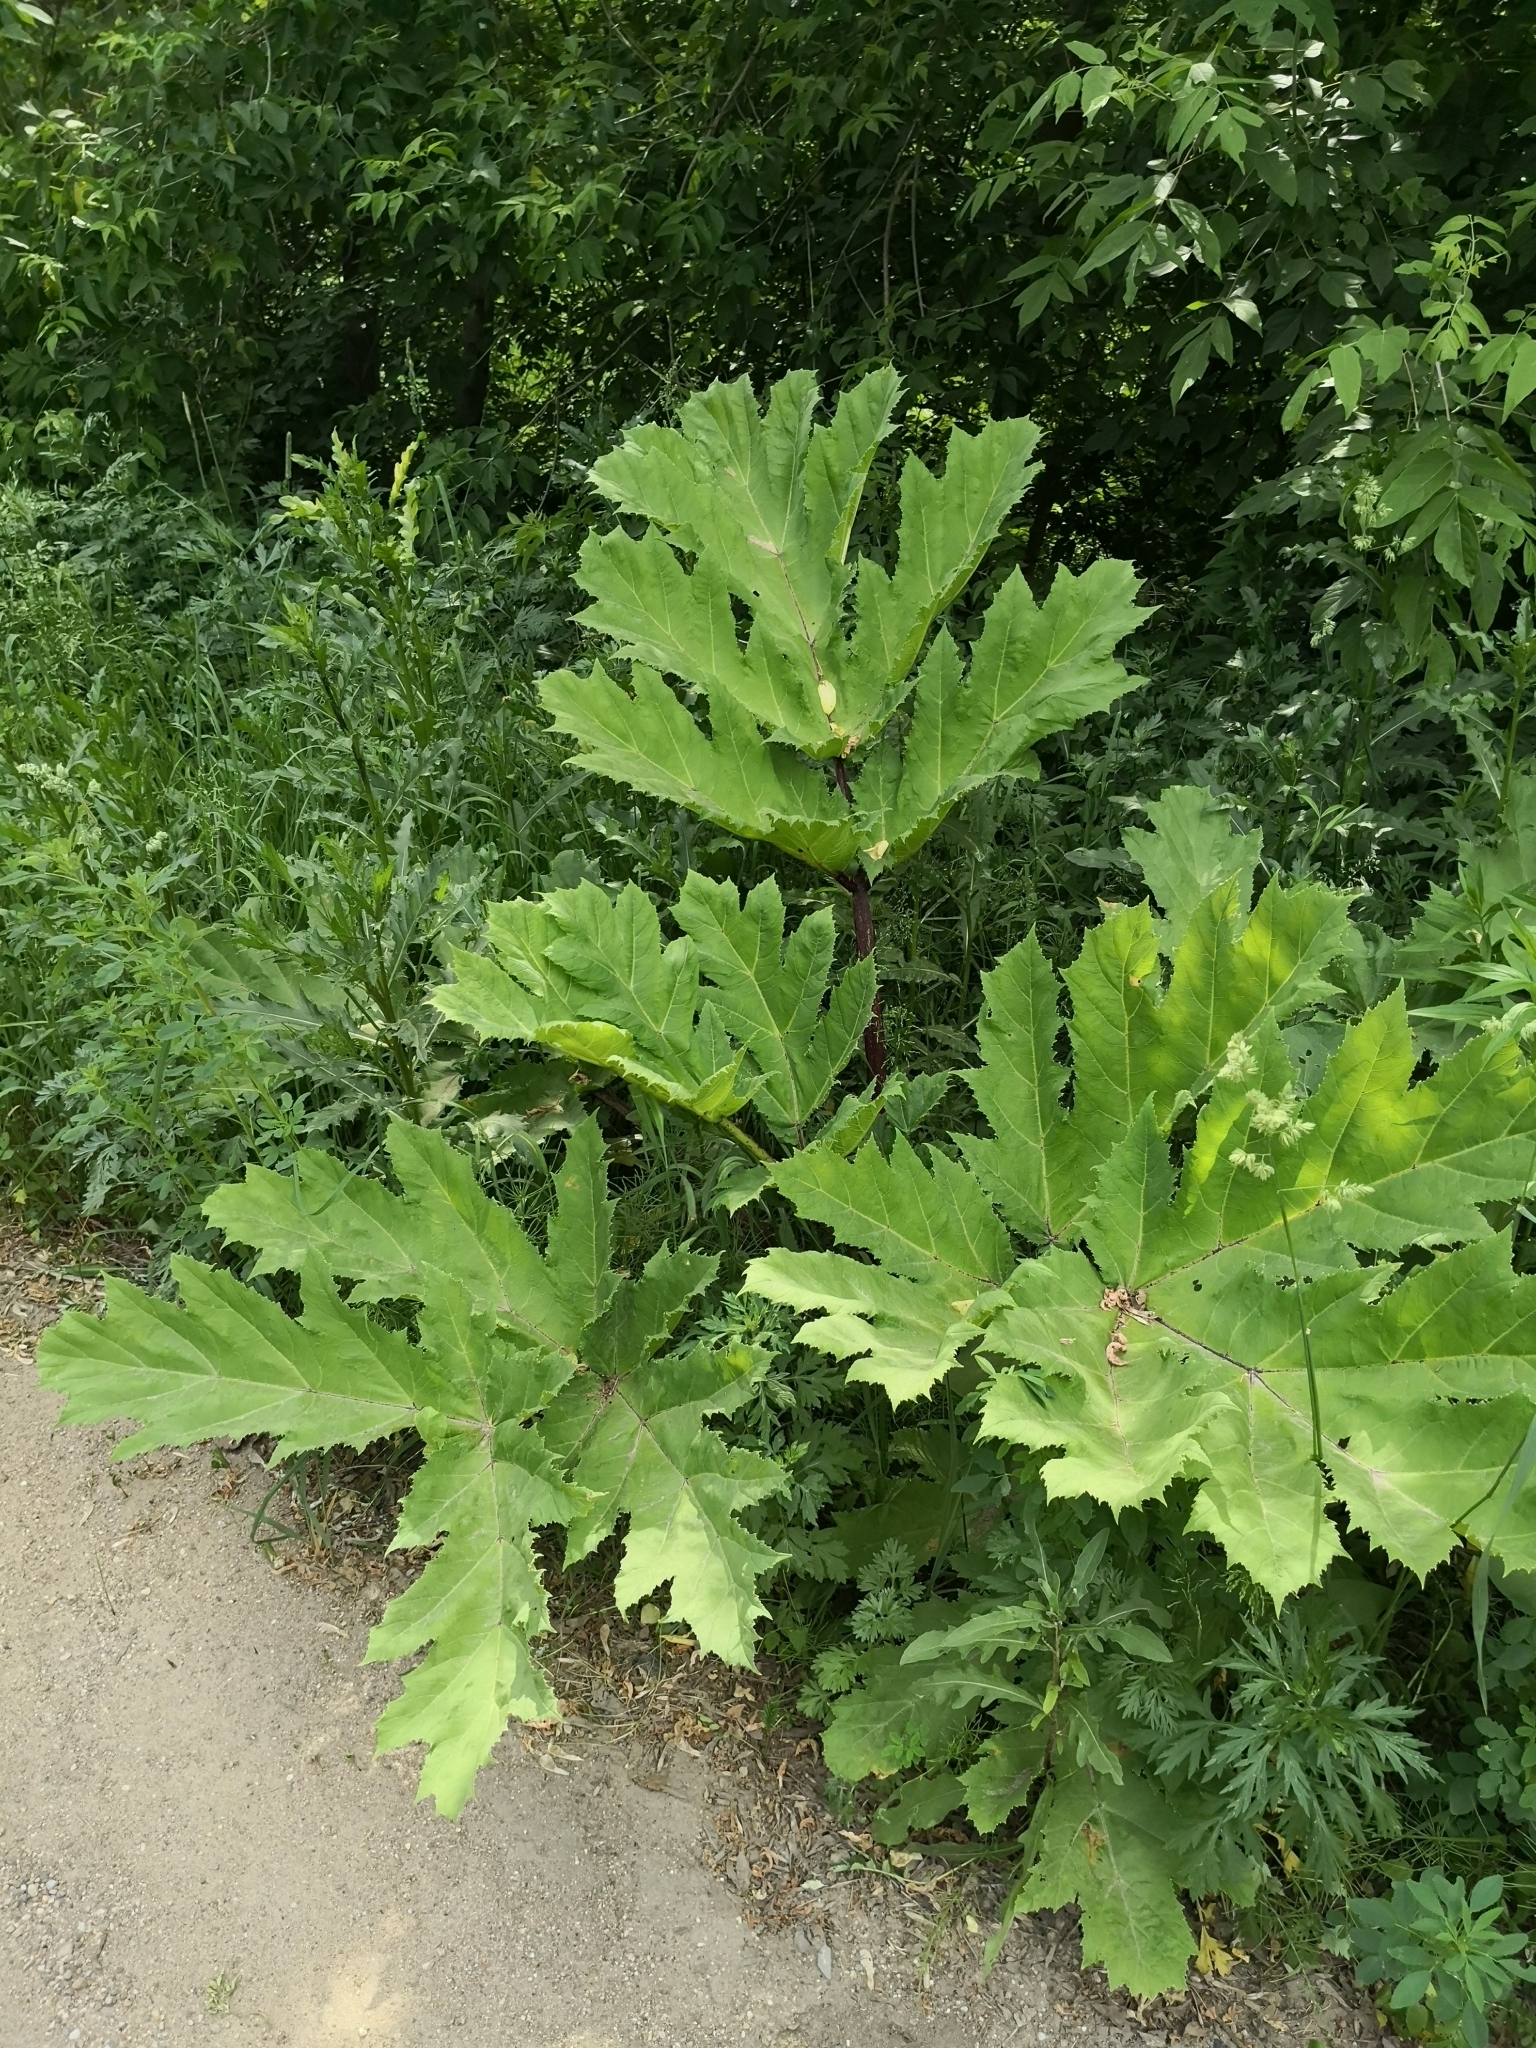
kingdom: Plantae
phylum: Tracheophyta
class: Magnoliopsida
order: Apiales
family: Apiaceae
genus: Heracleum
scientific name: Heracleum sosnowskyi
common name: Sosnowsky's hogweed
